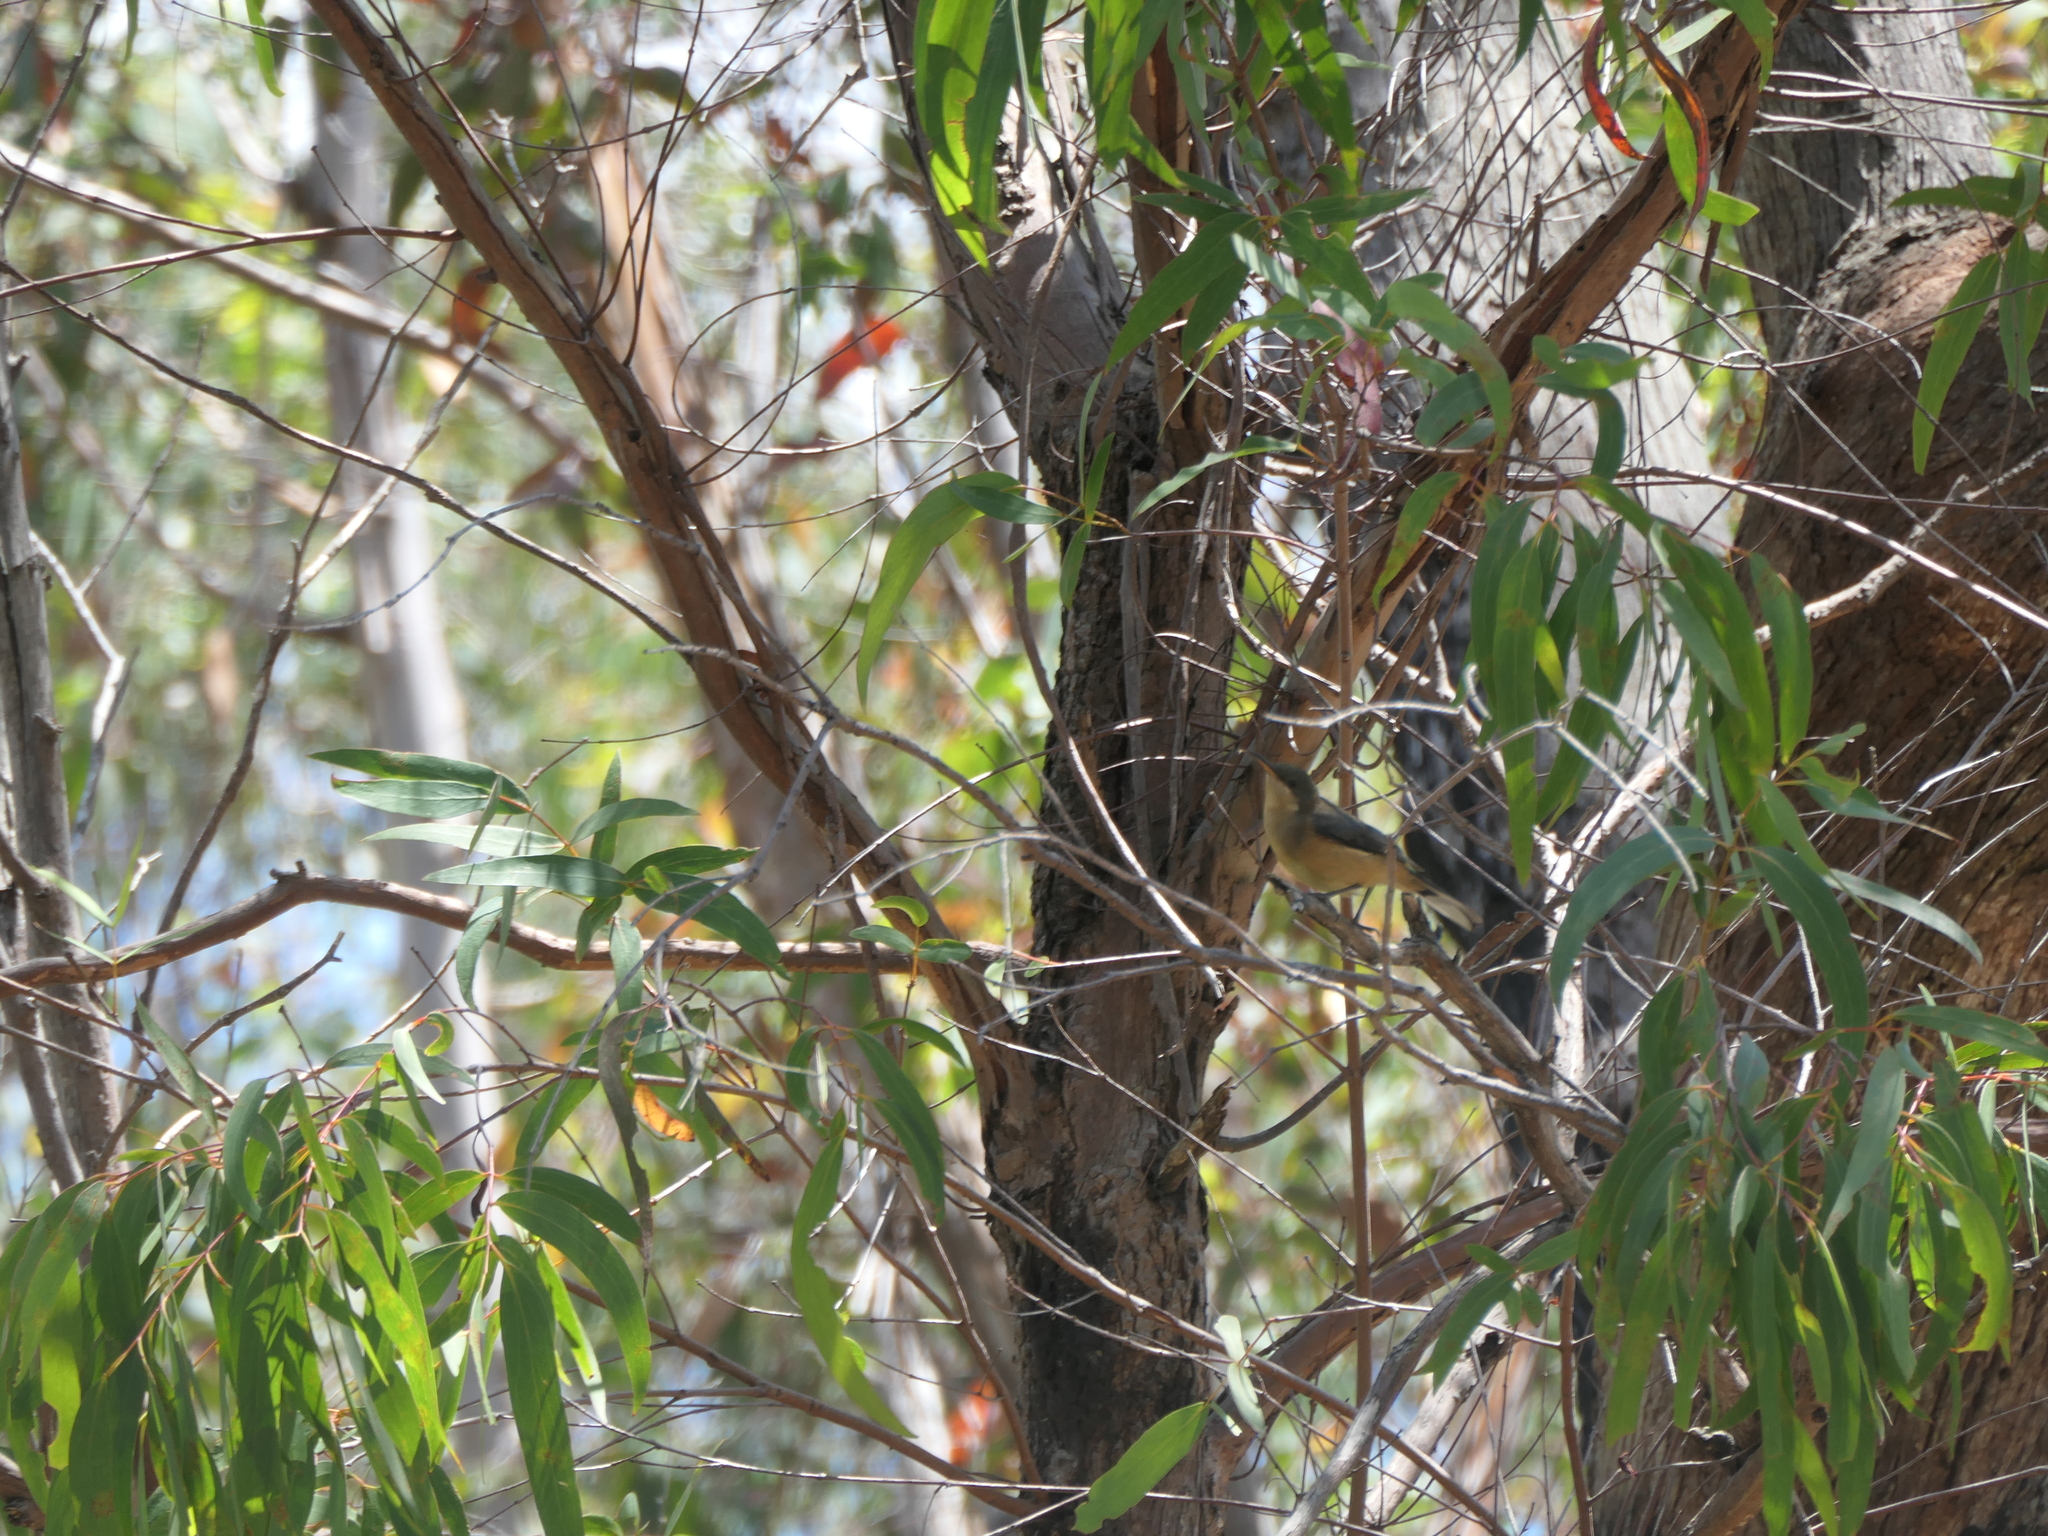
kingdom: Animalia
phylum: Chordata
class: Aves
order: Passeriformes
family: Meliphagidae
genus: Acanthorhynchus
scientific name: Acanthorhynchus tenuirostris
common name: Eastern spinebill
